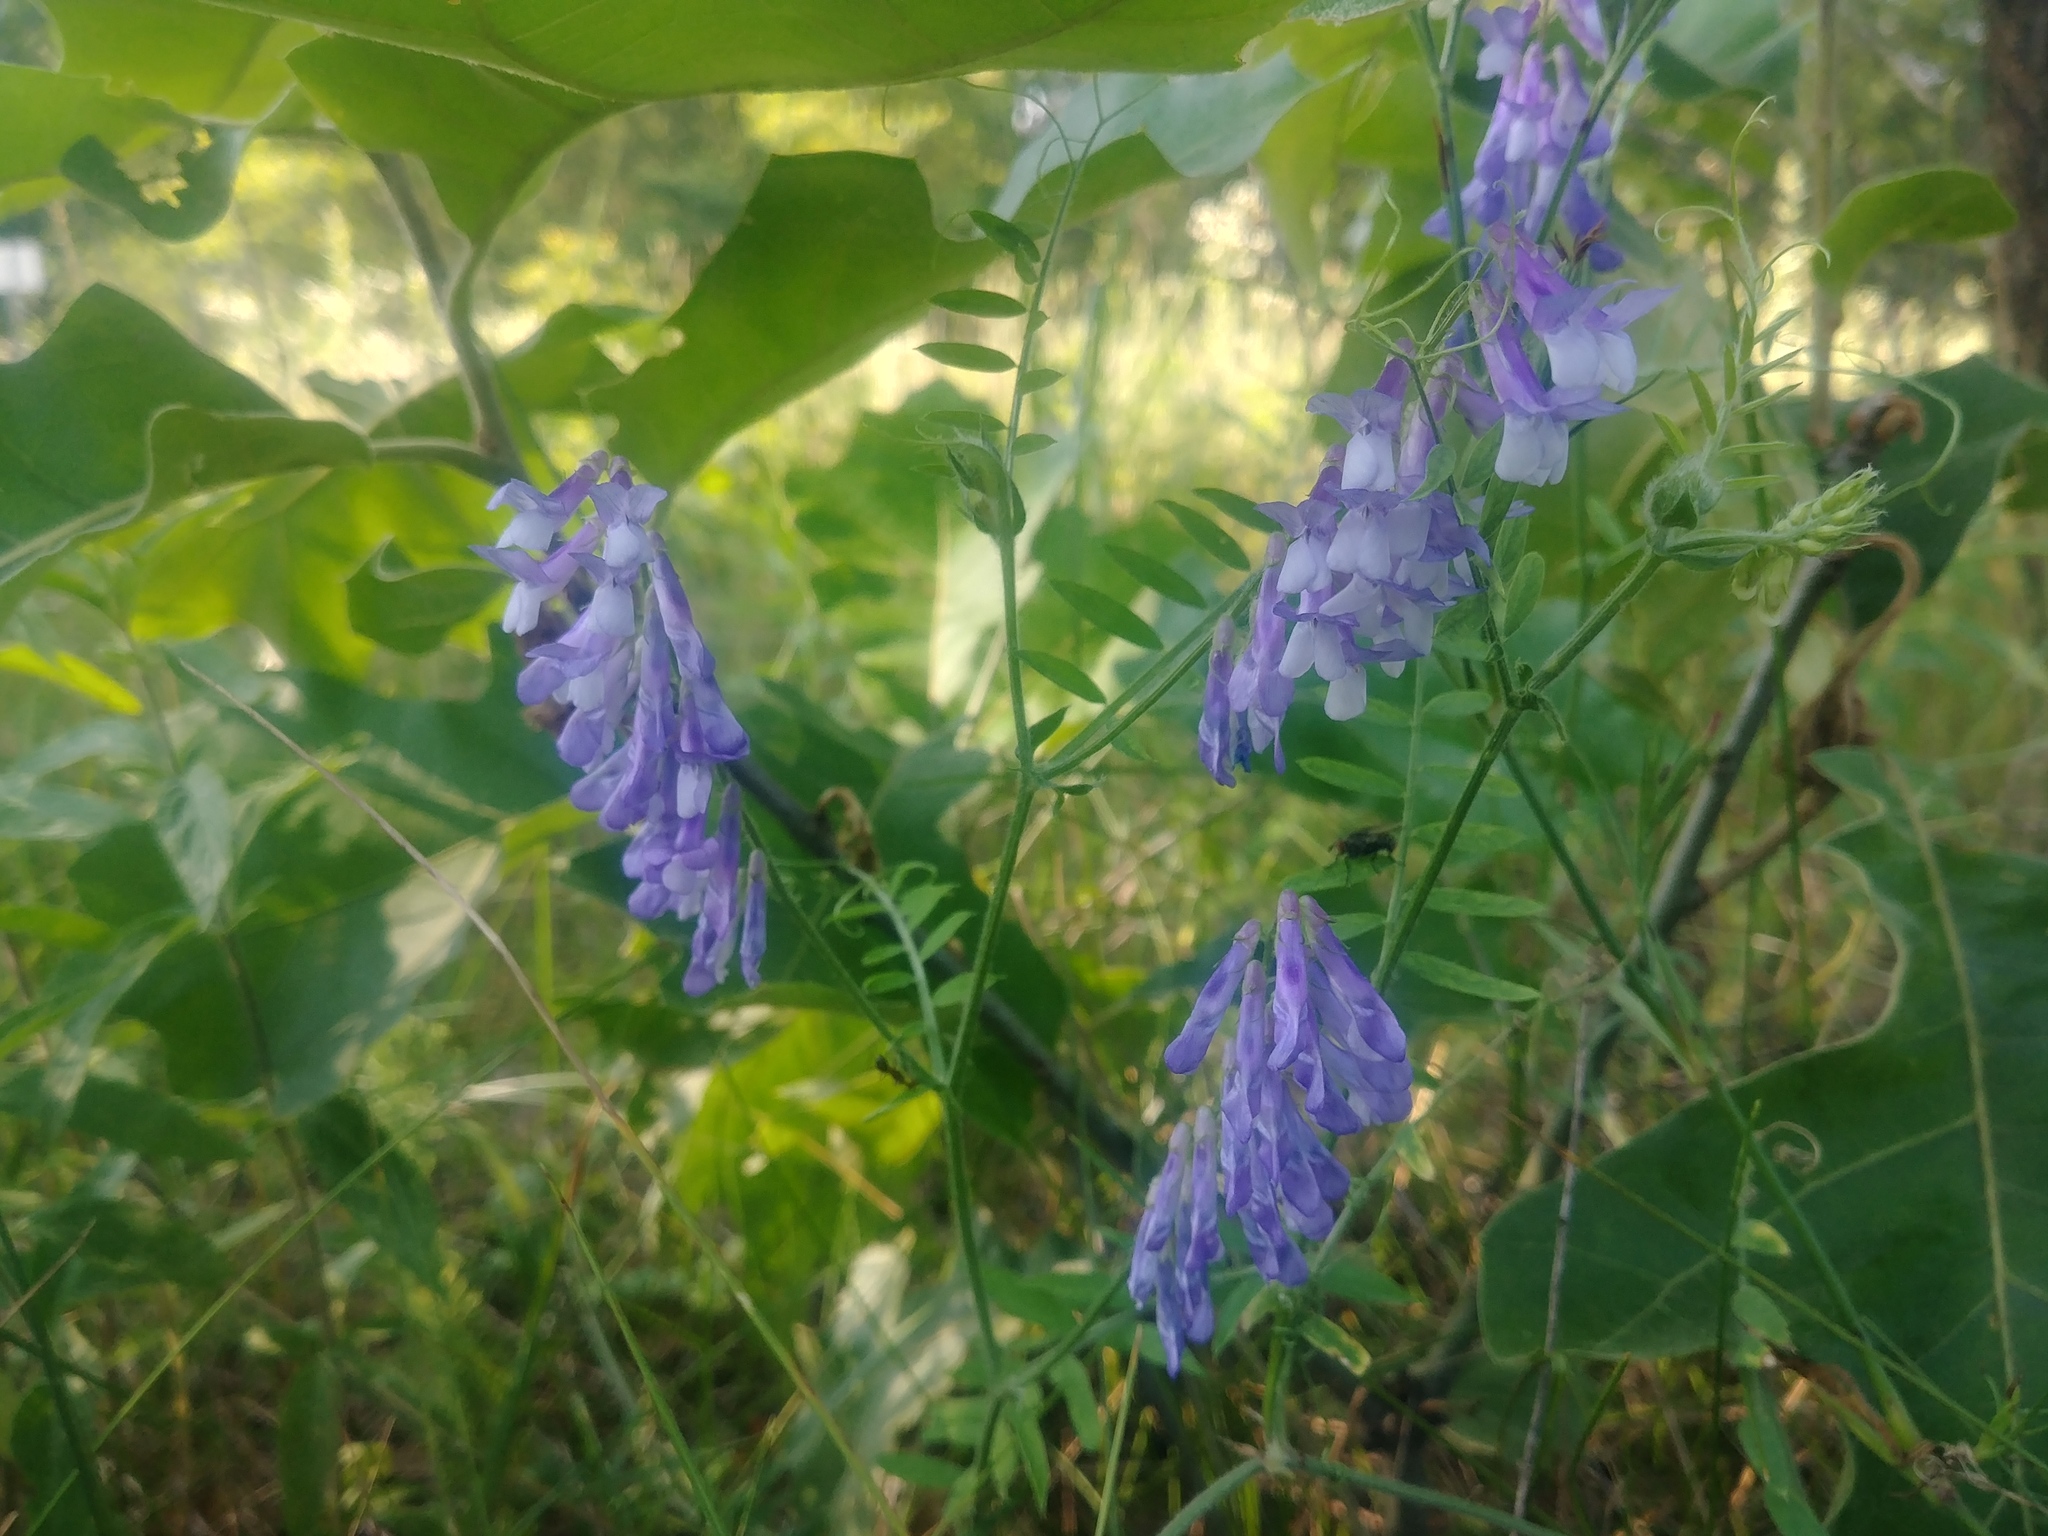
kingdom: Plantae
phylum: Tracheophyta
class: Magnoliopsida
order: Fabales
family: Fabaceae
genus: Vicia
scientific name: Vicia villosa
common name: Fodder vetch
